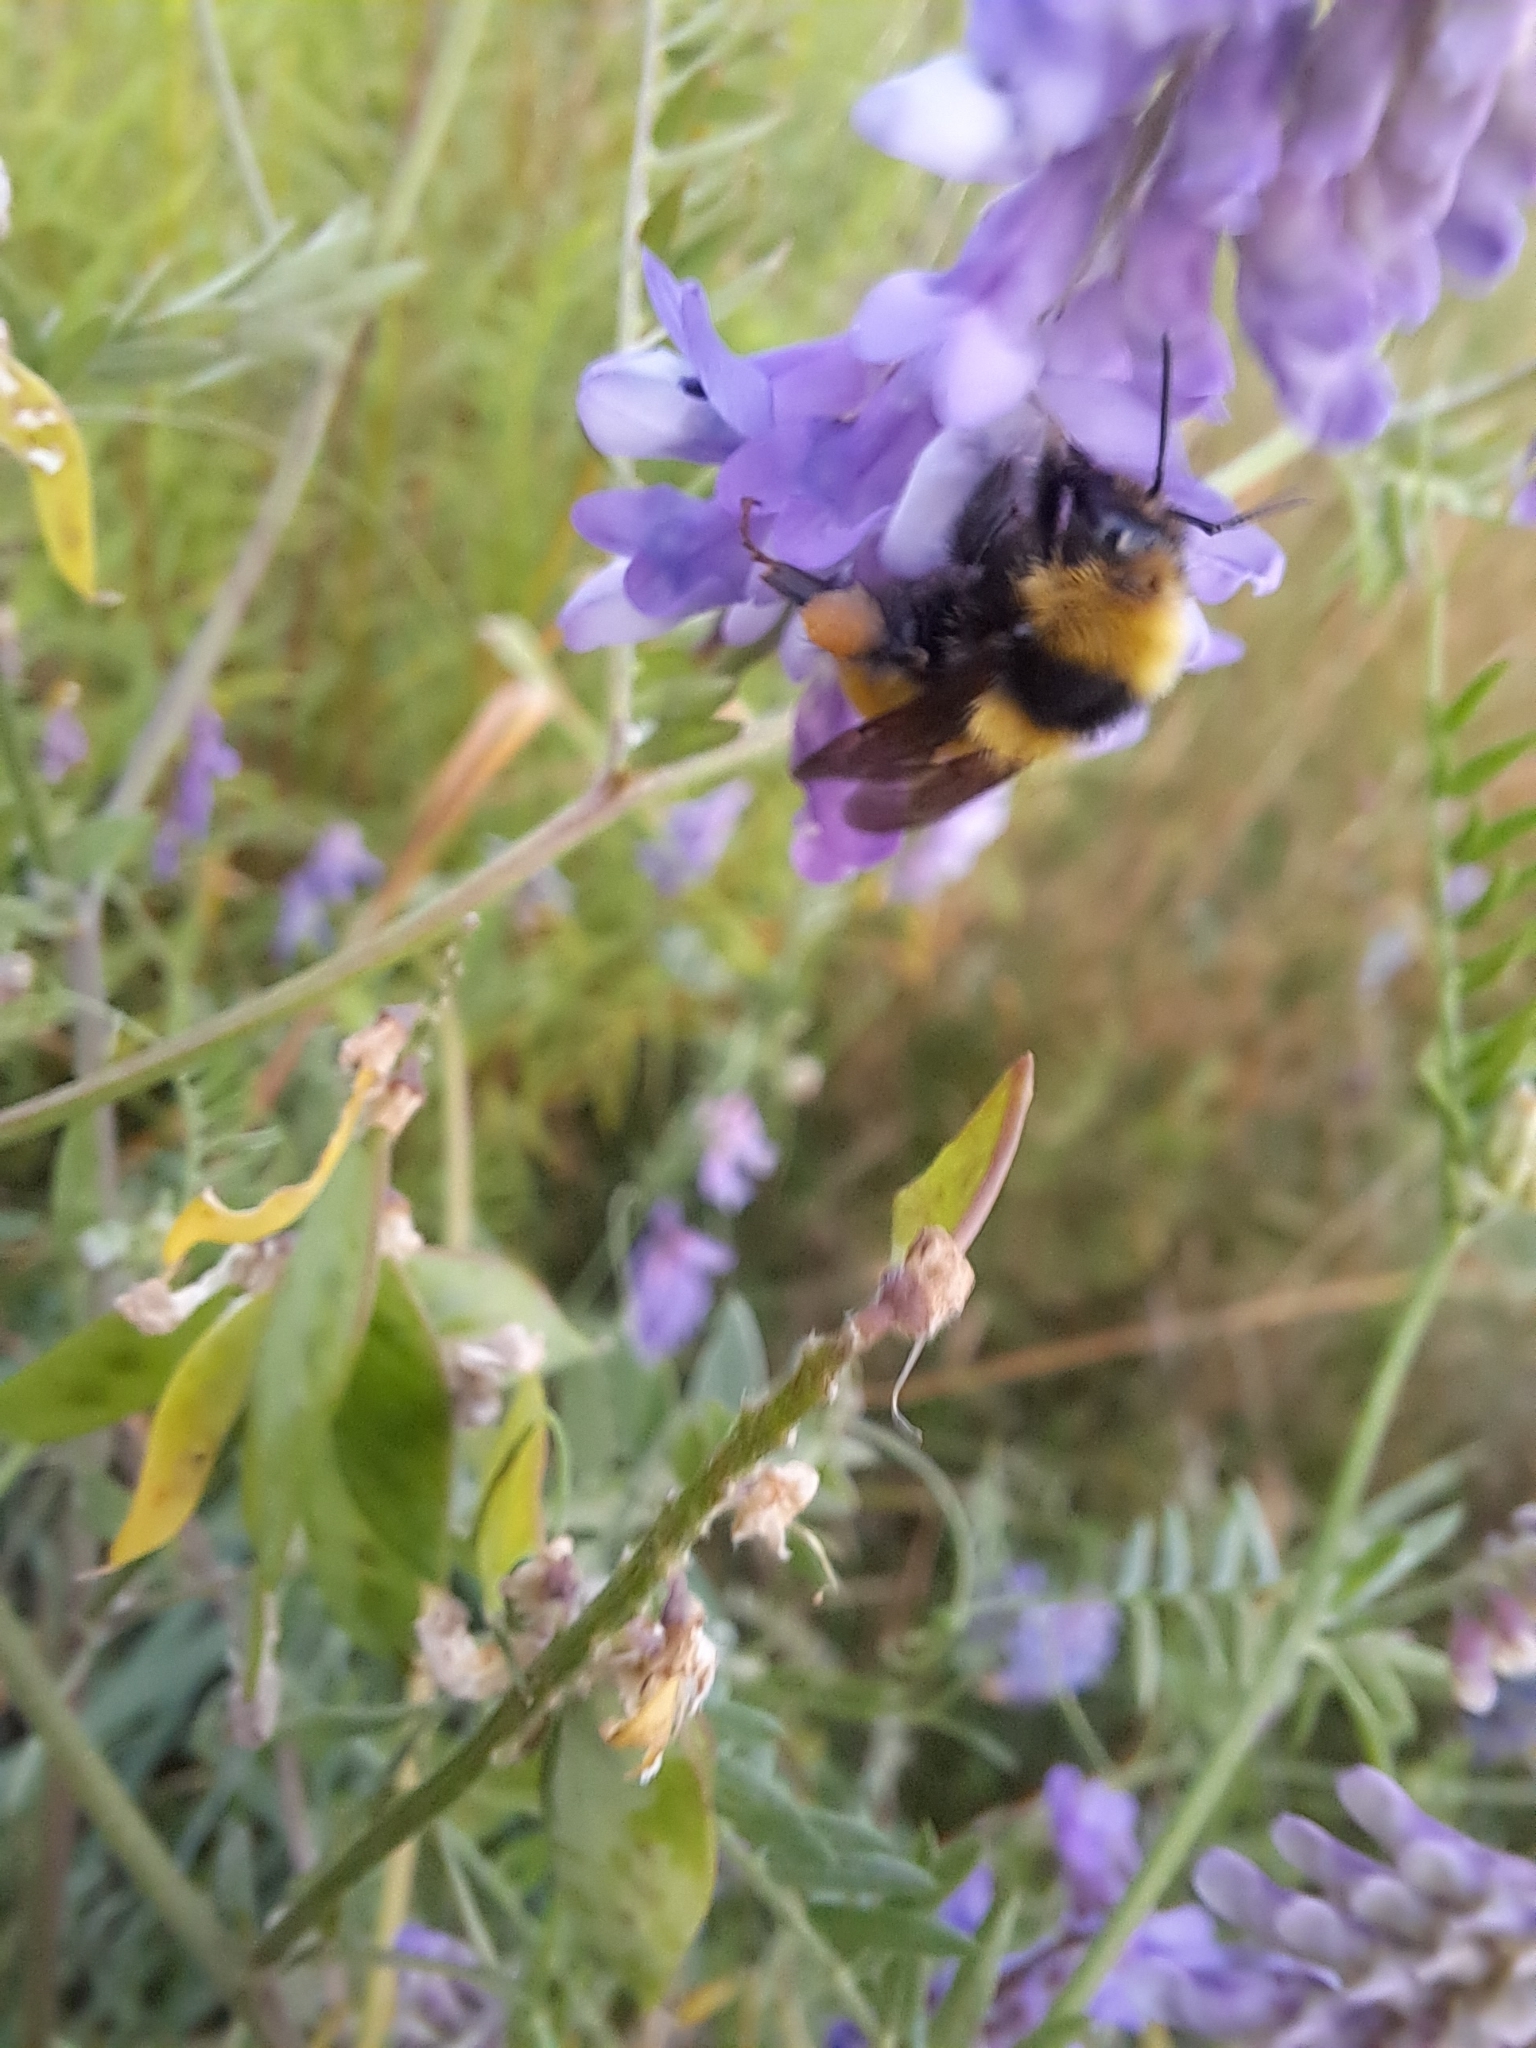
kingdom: Animalia
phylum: Arthropoda
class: Insecta
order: Hymenoptera
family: Apidae
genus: Bombus
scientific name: Bombus borealis
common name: Northern amber bumble bee
